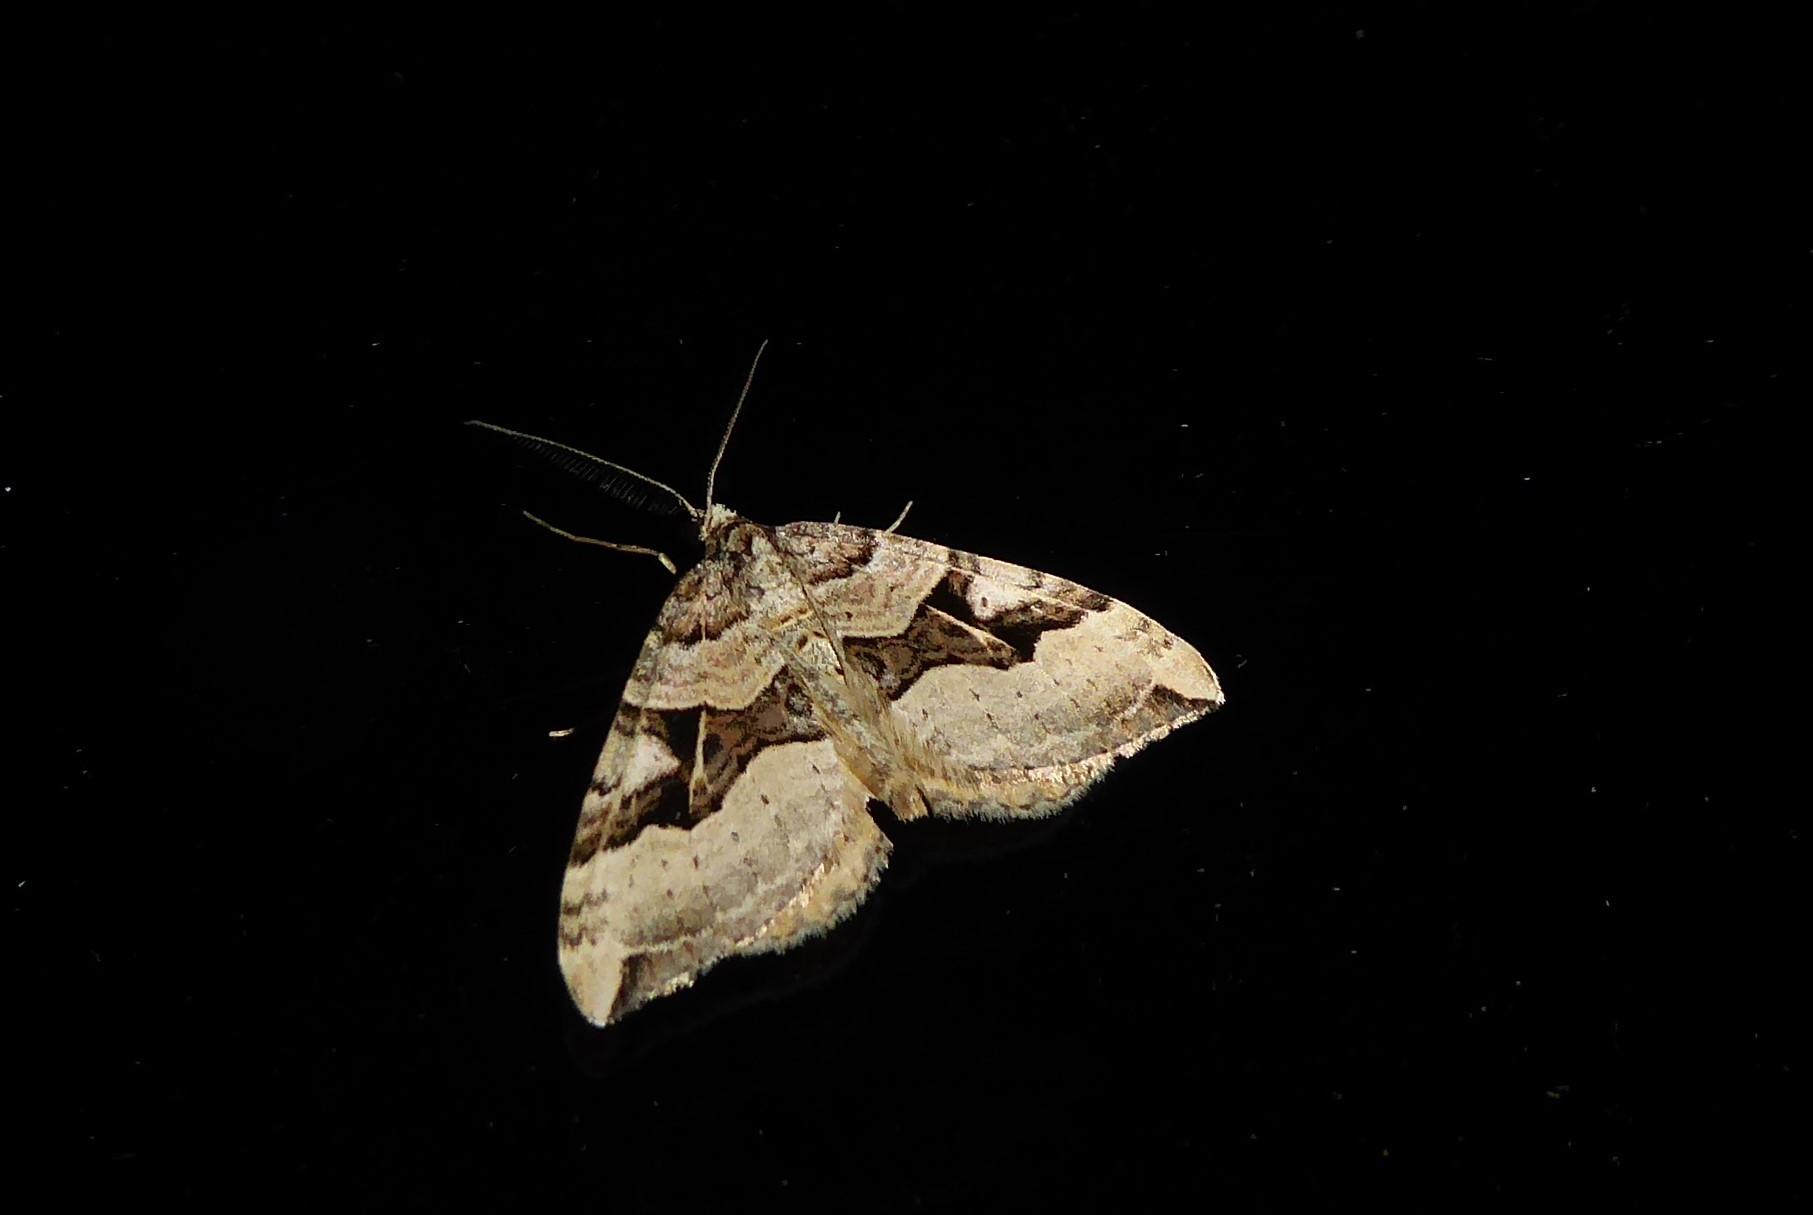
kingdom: Animalia
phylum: Arthropoda
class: Insecta
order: Lepidoptera
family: Geometridae
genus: Xanthorhoe
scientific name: Xanthorhoe semifissata
